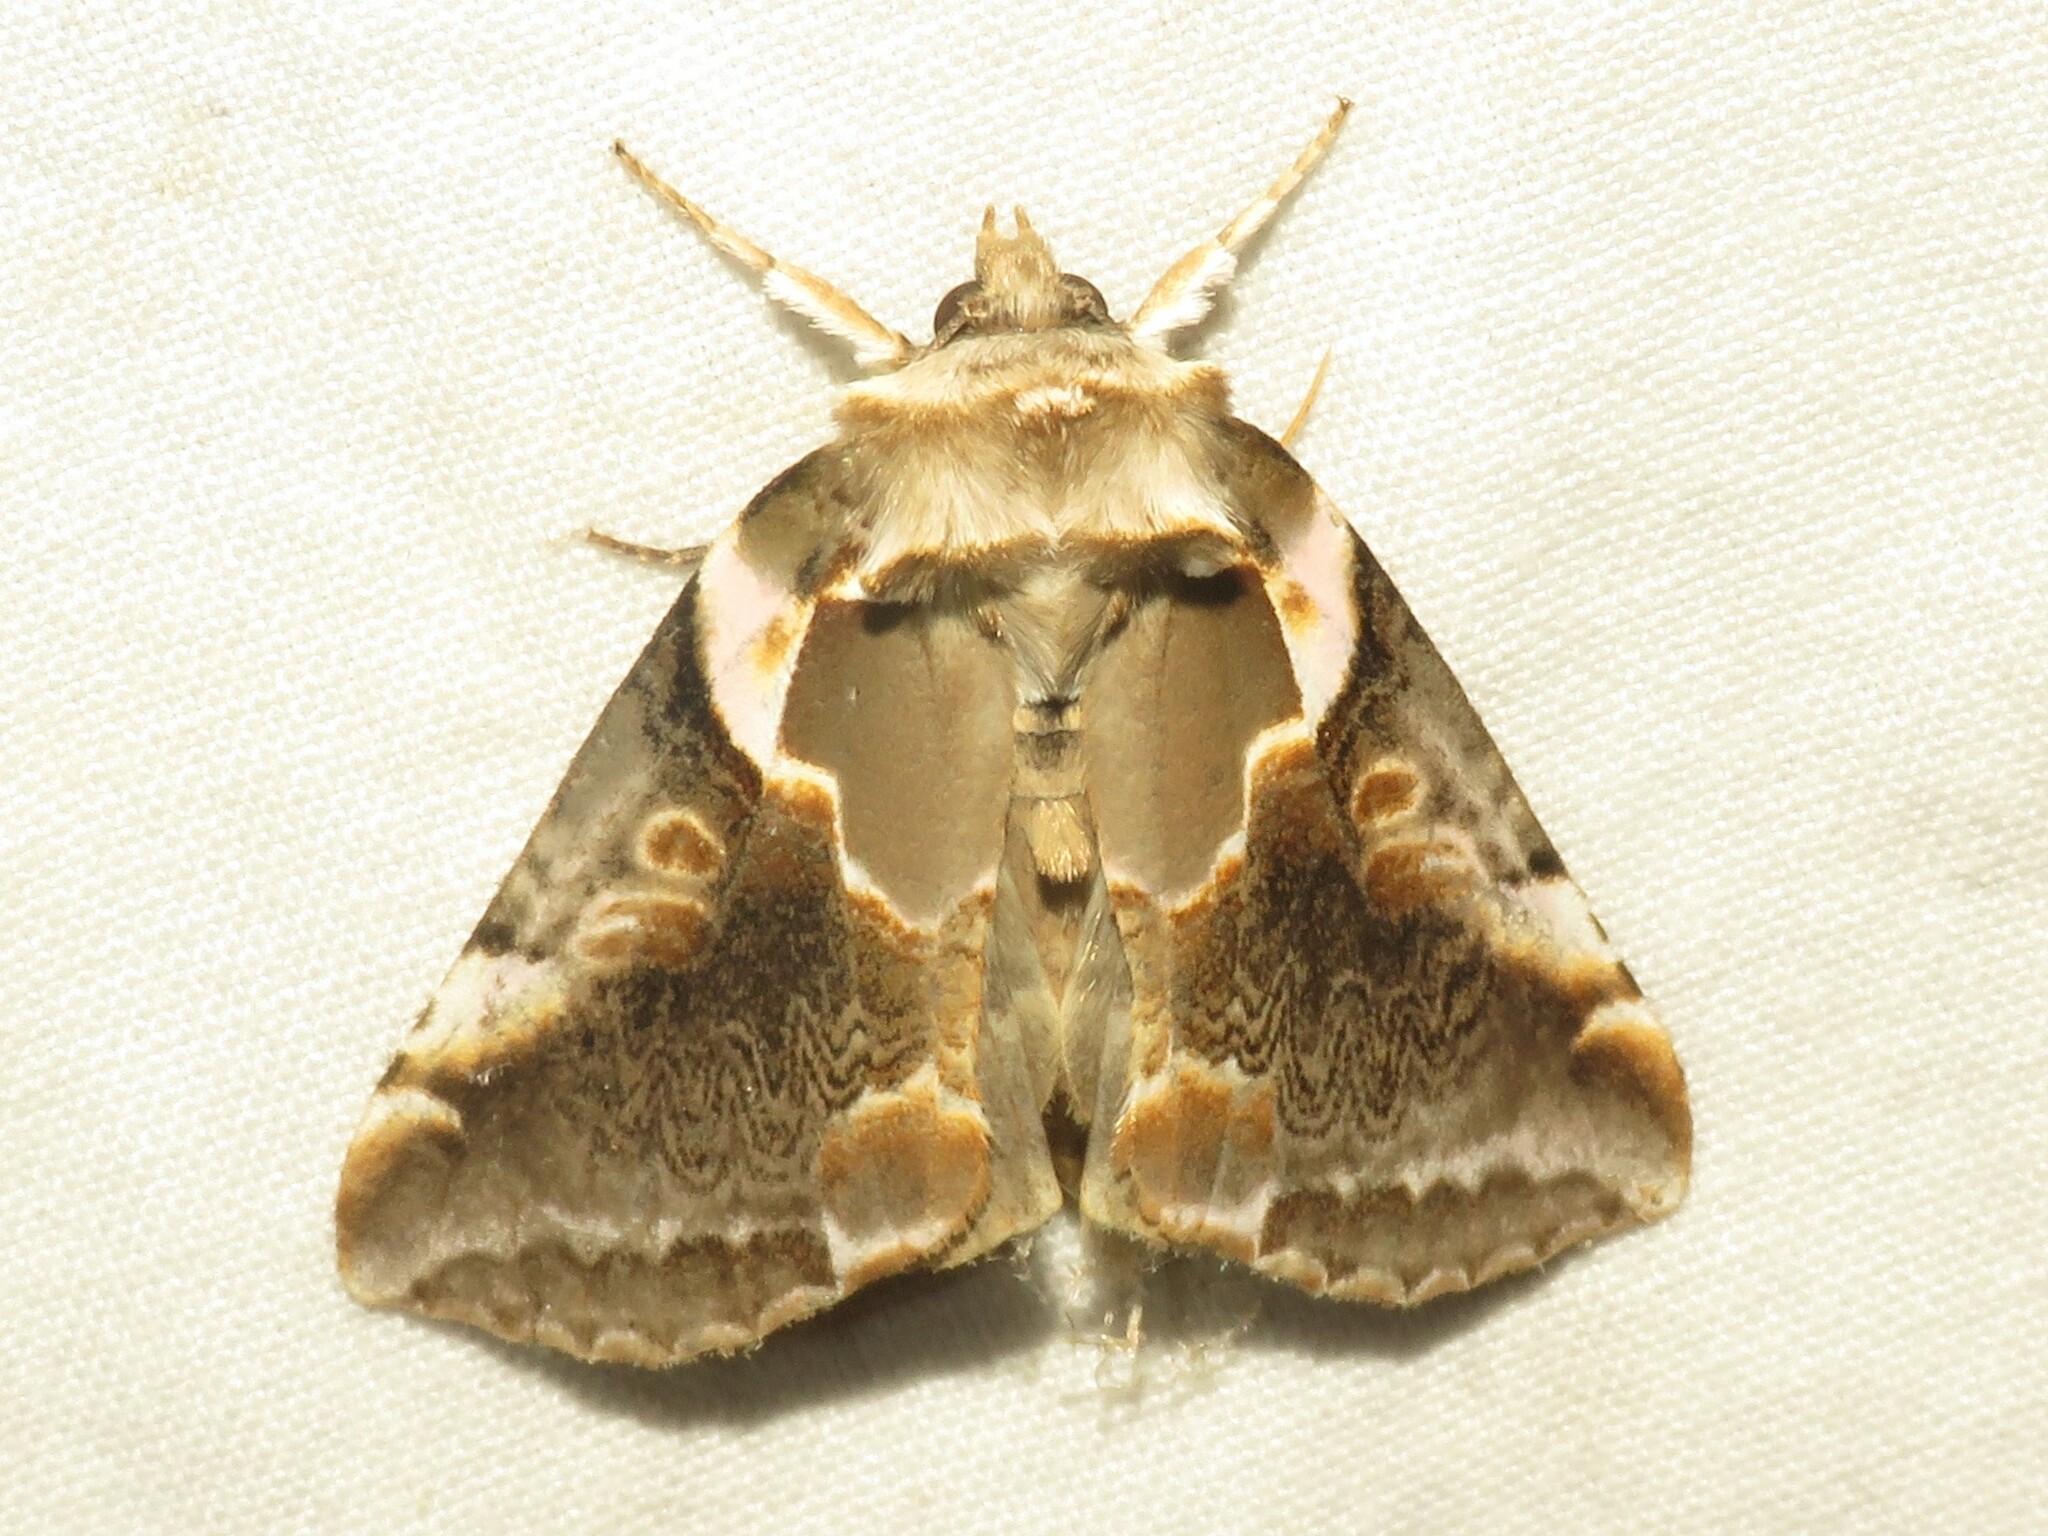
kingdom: Animalia
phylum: Arthropoda
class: Insecta
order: Lepidoptera
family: Drepanidae
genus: Habrosyne
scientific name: Habrosyne gloriosa
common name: Glorious habrosyne moth
